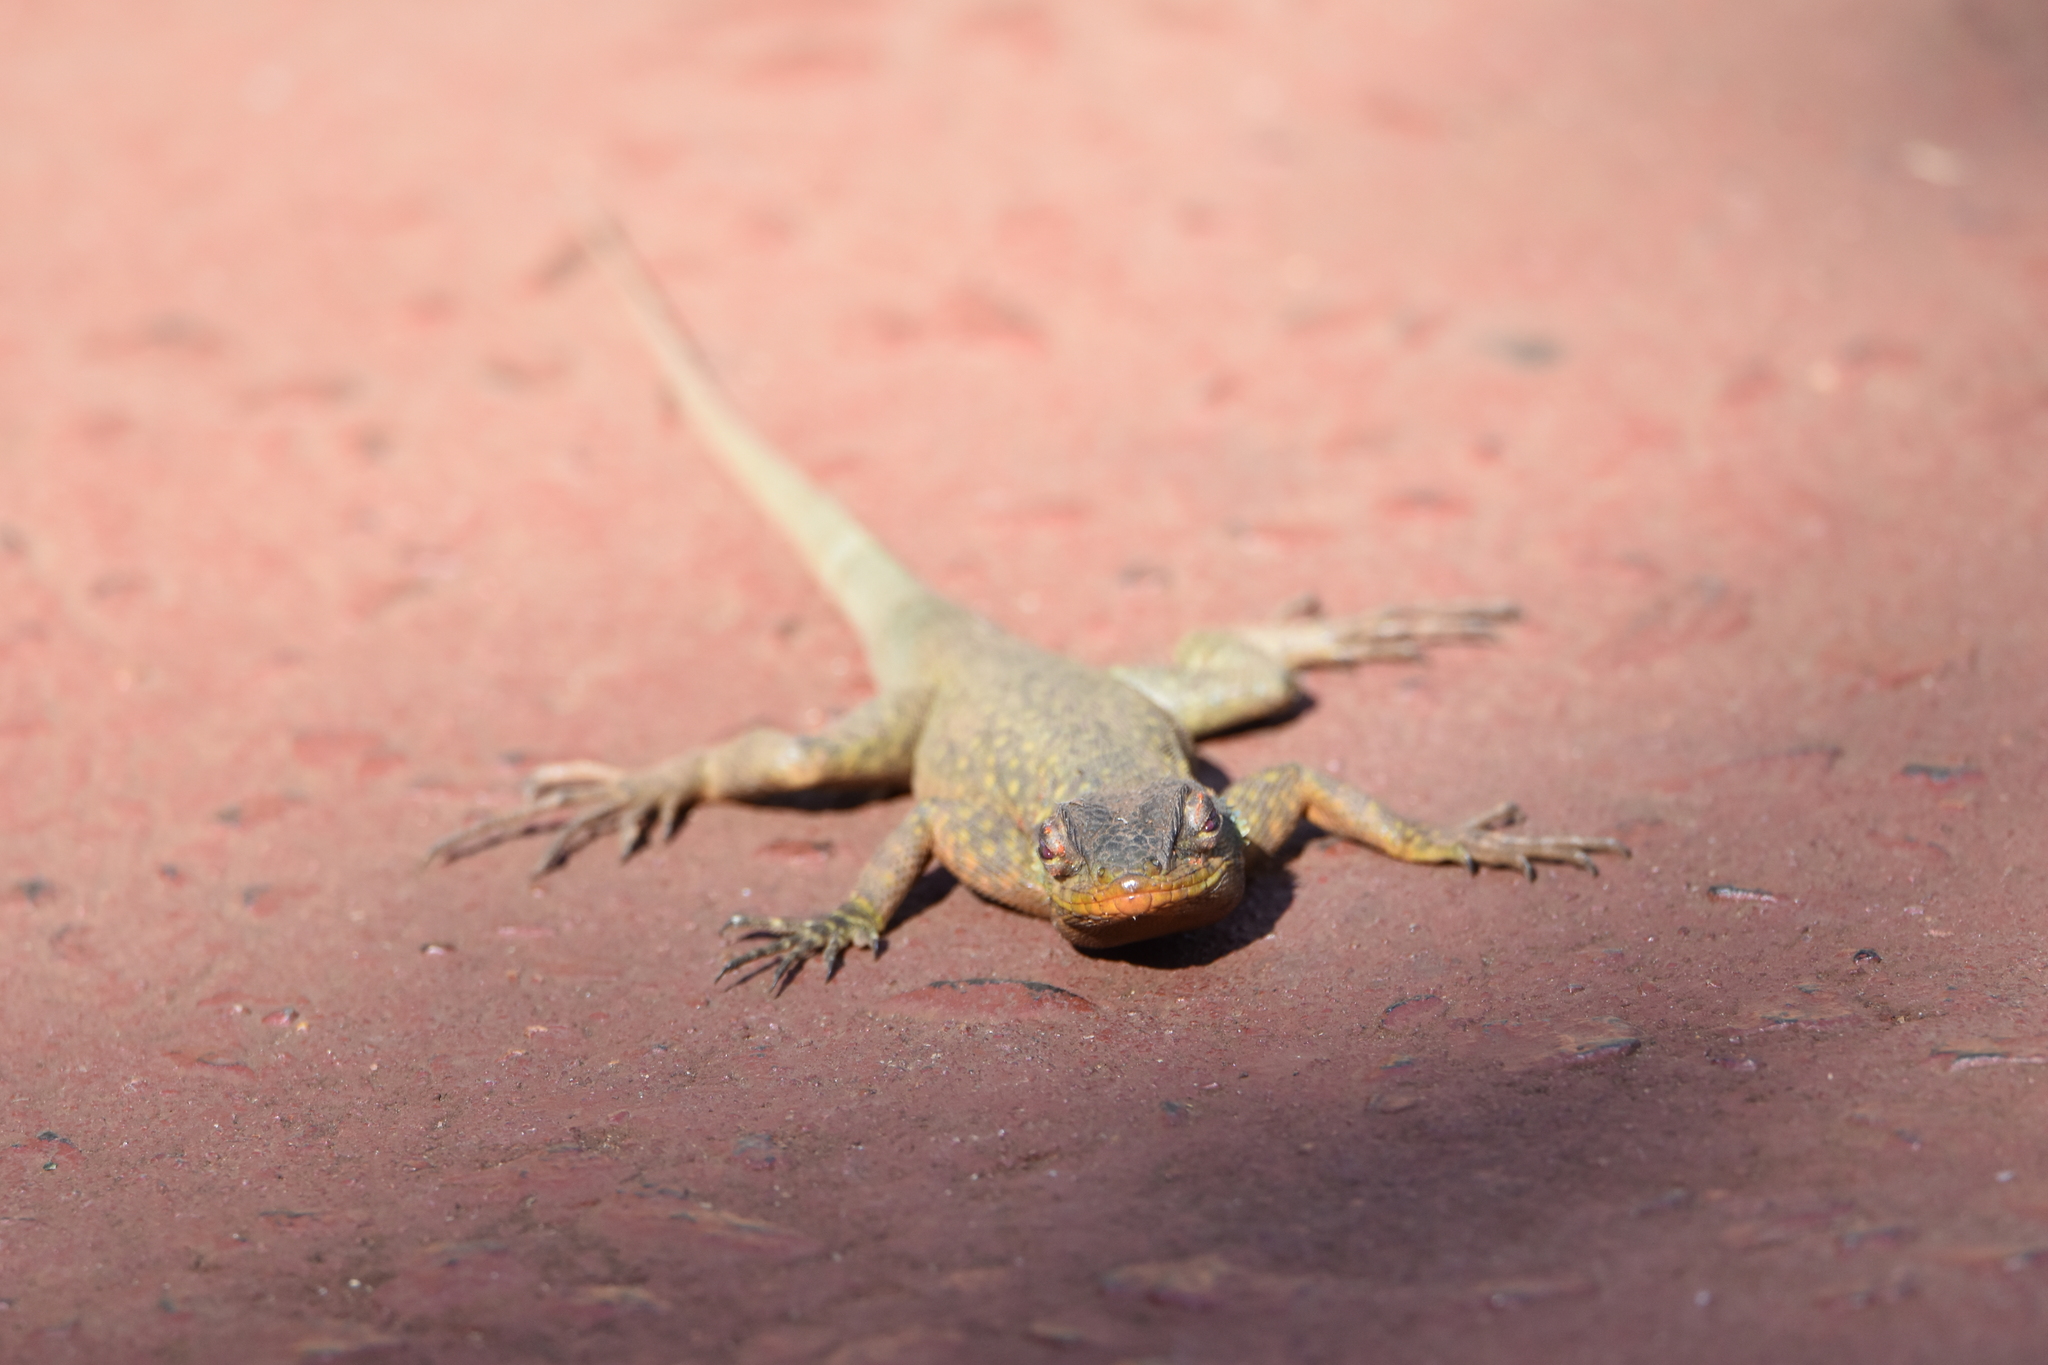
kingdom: Animalia
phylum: Chordata
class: Squamata
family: Tropiduridae
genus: Tropidurus
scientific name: Tropidurus catalanensis
